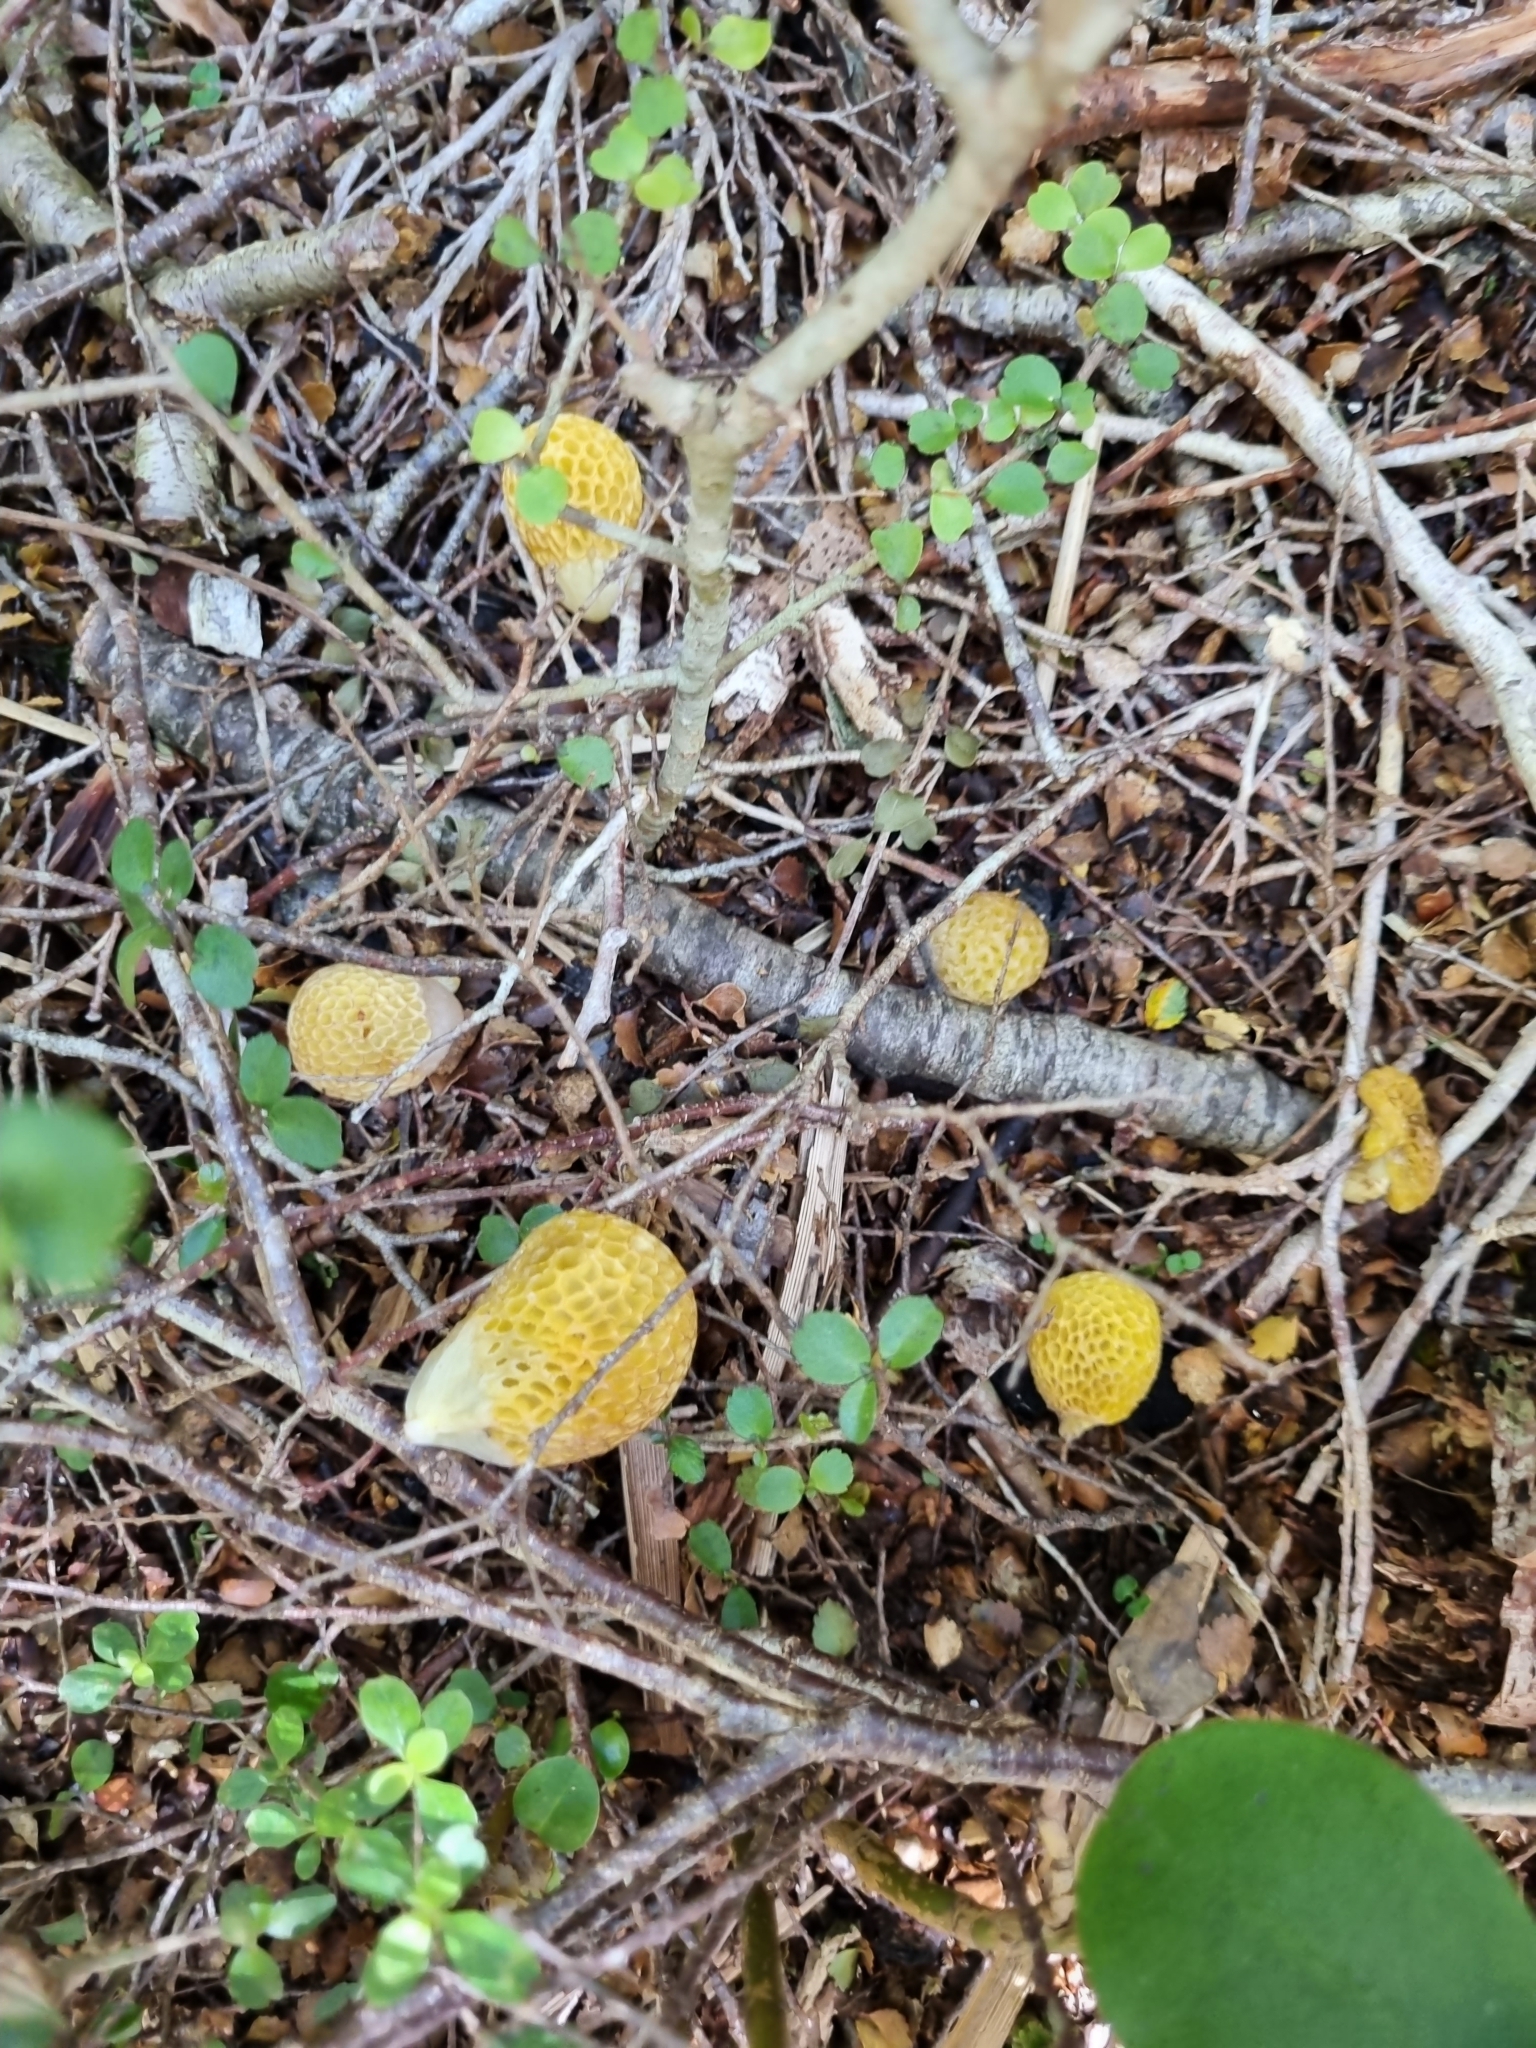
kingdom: Fungi
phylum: Ascomycota
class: Leotiomycetes
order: Cyttariales
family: Cyttariaceae
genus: Cyttaria
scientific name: Cyttaria gunnii
